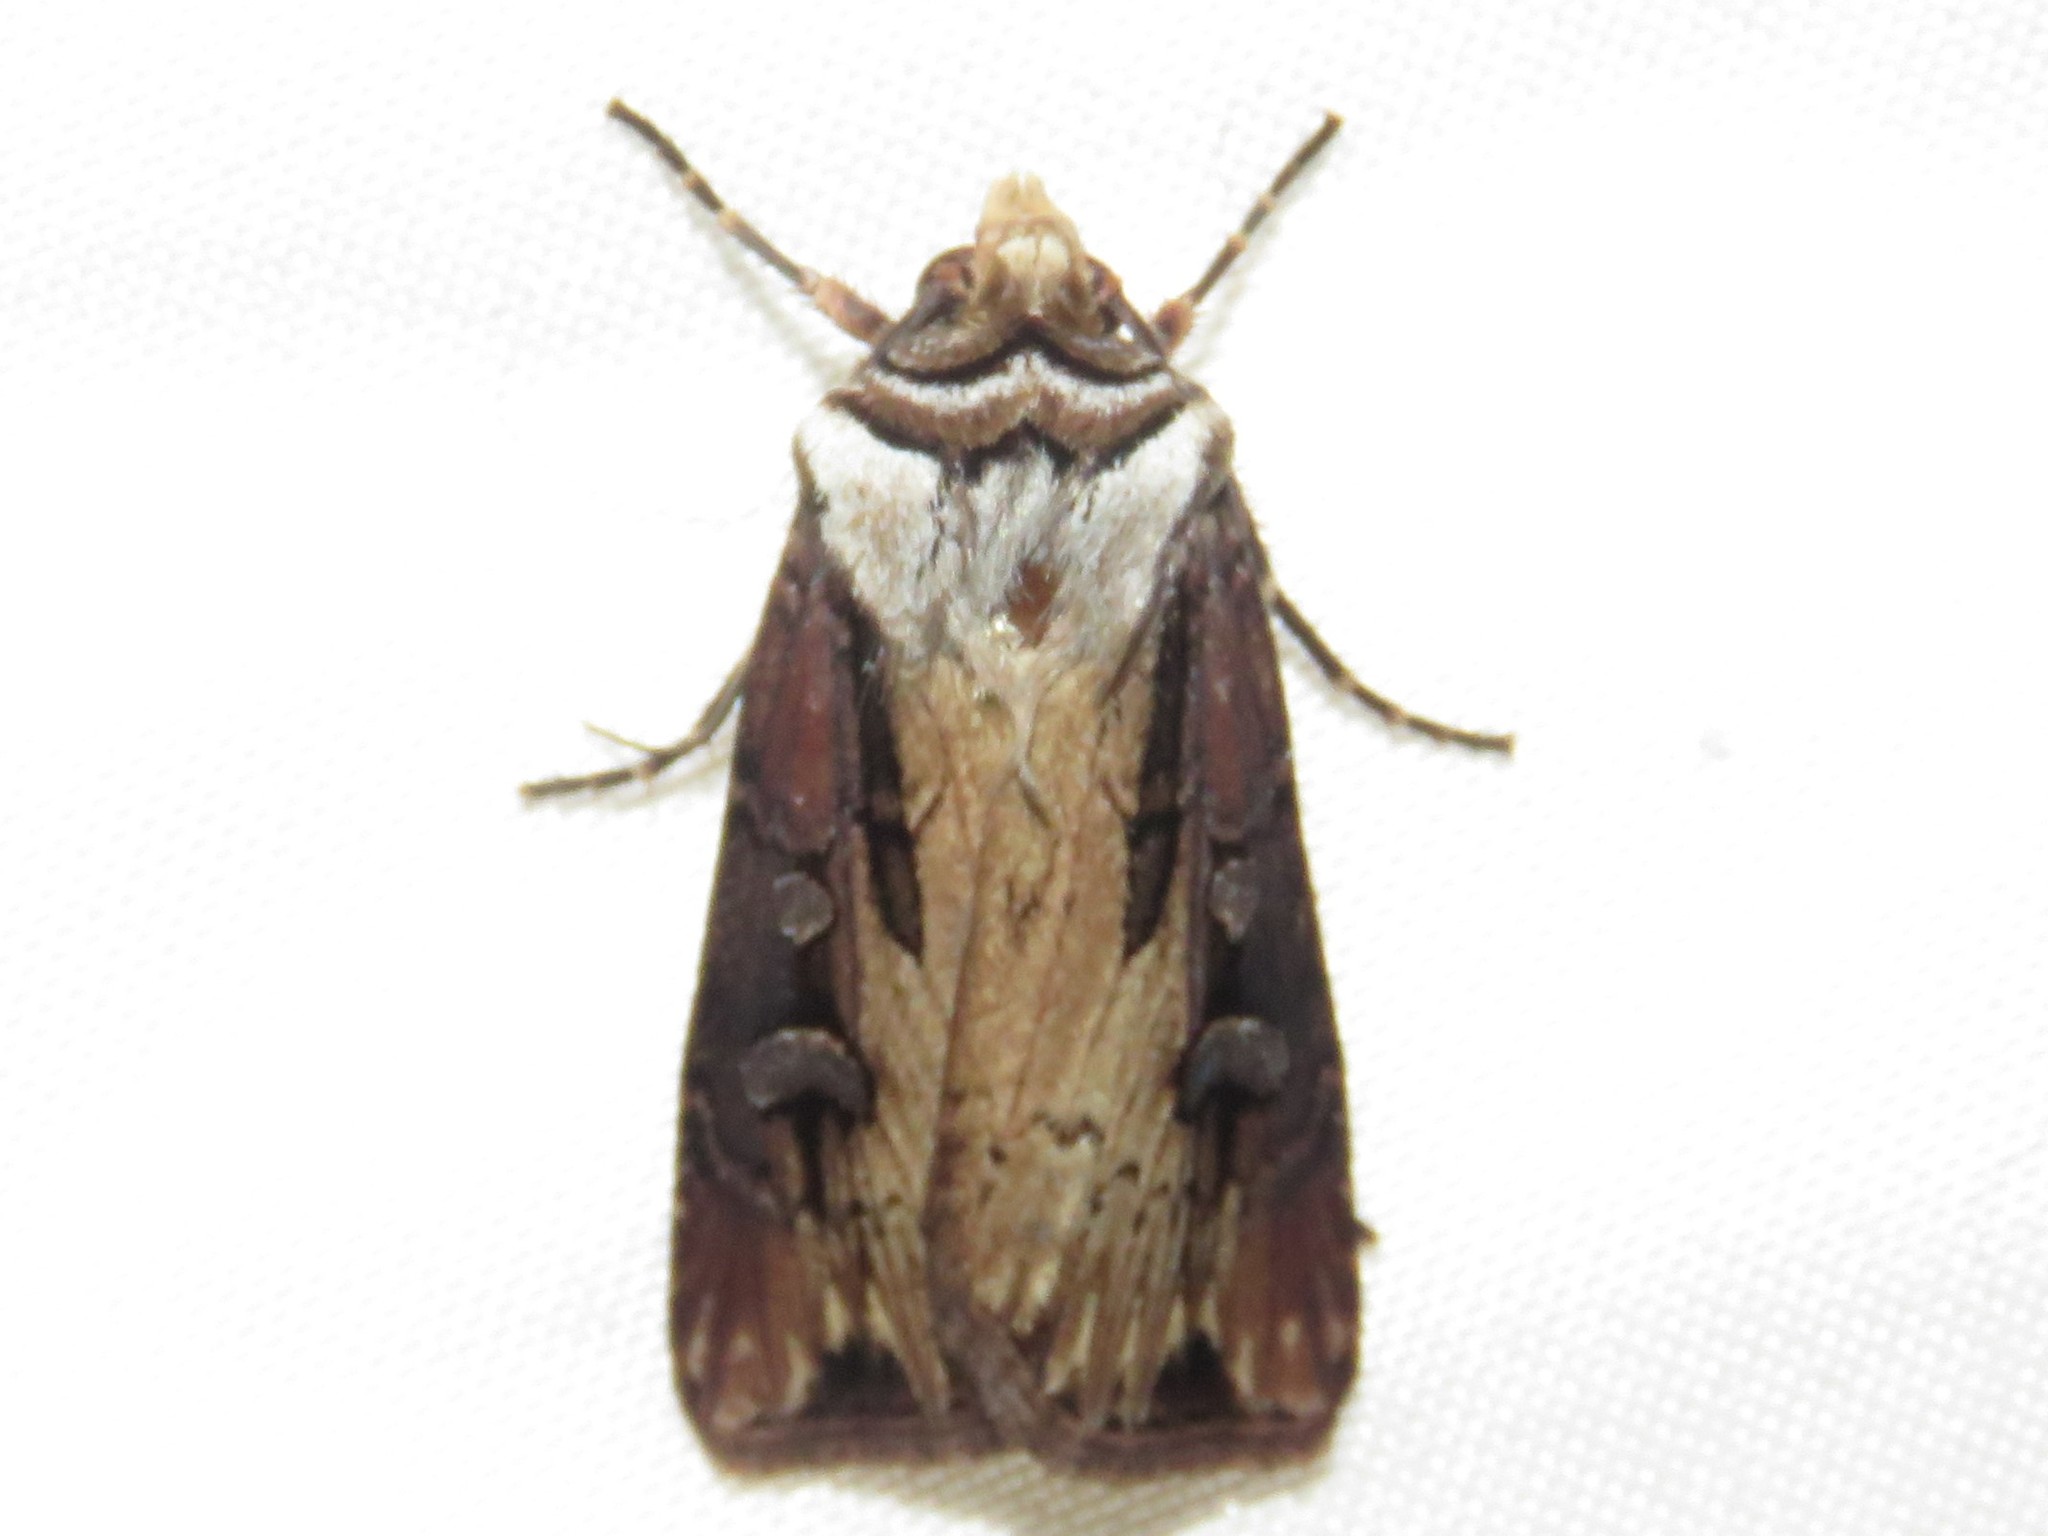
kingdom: Animalia
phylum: Arthropoda
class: Insecta
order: Lepidoptera
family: Noctuidae
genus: Agrotis
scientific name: Agrotis volubilis
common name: Voluble dart
